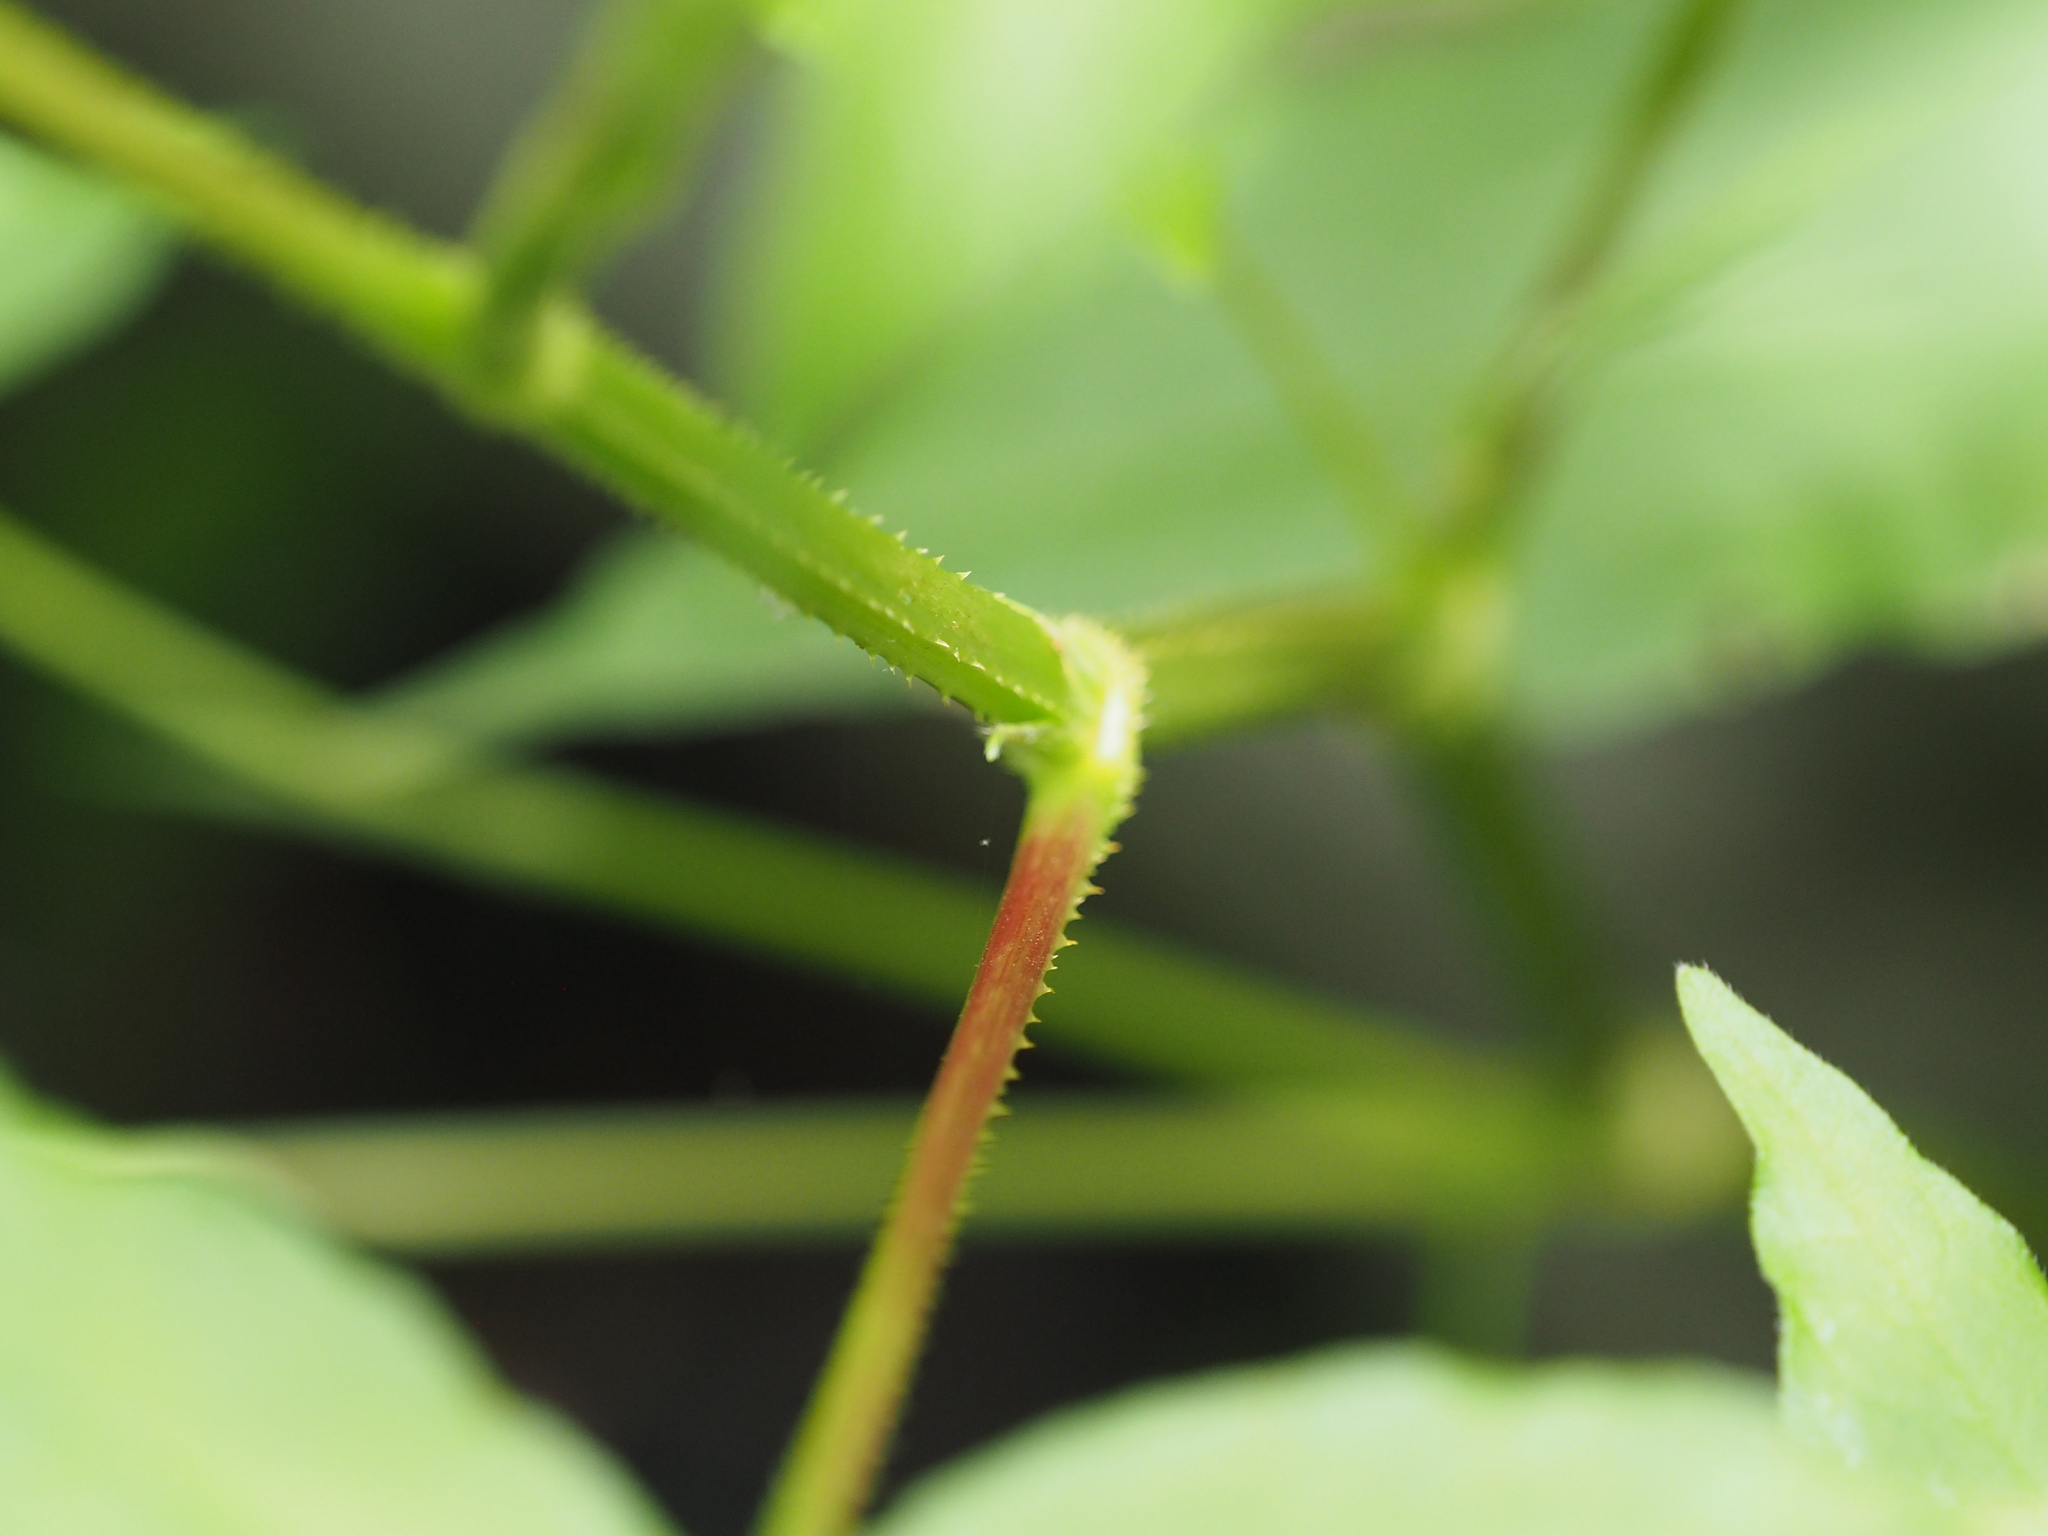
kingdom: Plantae
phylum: Tracheophyta
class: Magnoliopsida
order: Caryophyllales
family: Polygonaceae
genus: Persicaria
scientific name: Persicaria arifolia
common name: Halberd-leaved tear-thumb
